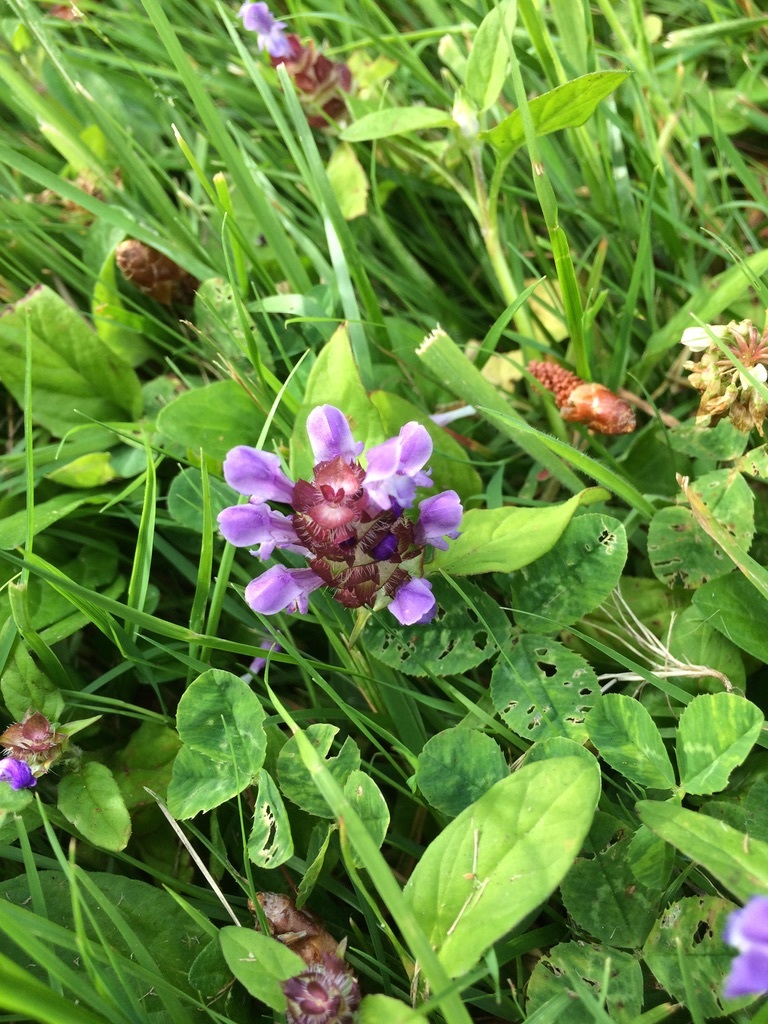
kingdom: Plantae
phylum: Tracheophyta
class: Magnoliopsida
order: Lamiales
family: Lamiaceae
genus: Prunella
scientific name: Prunella vulgaris
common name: Heal-all
